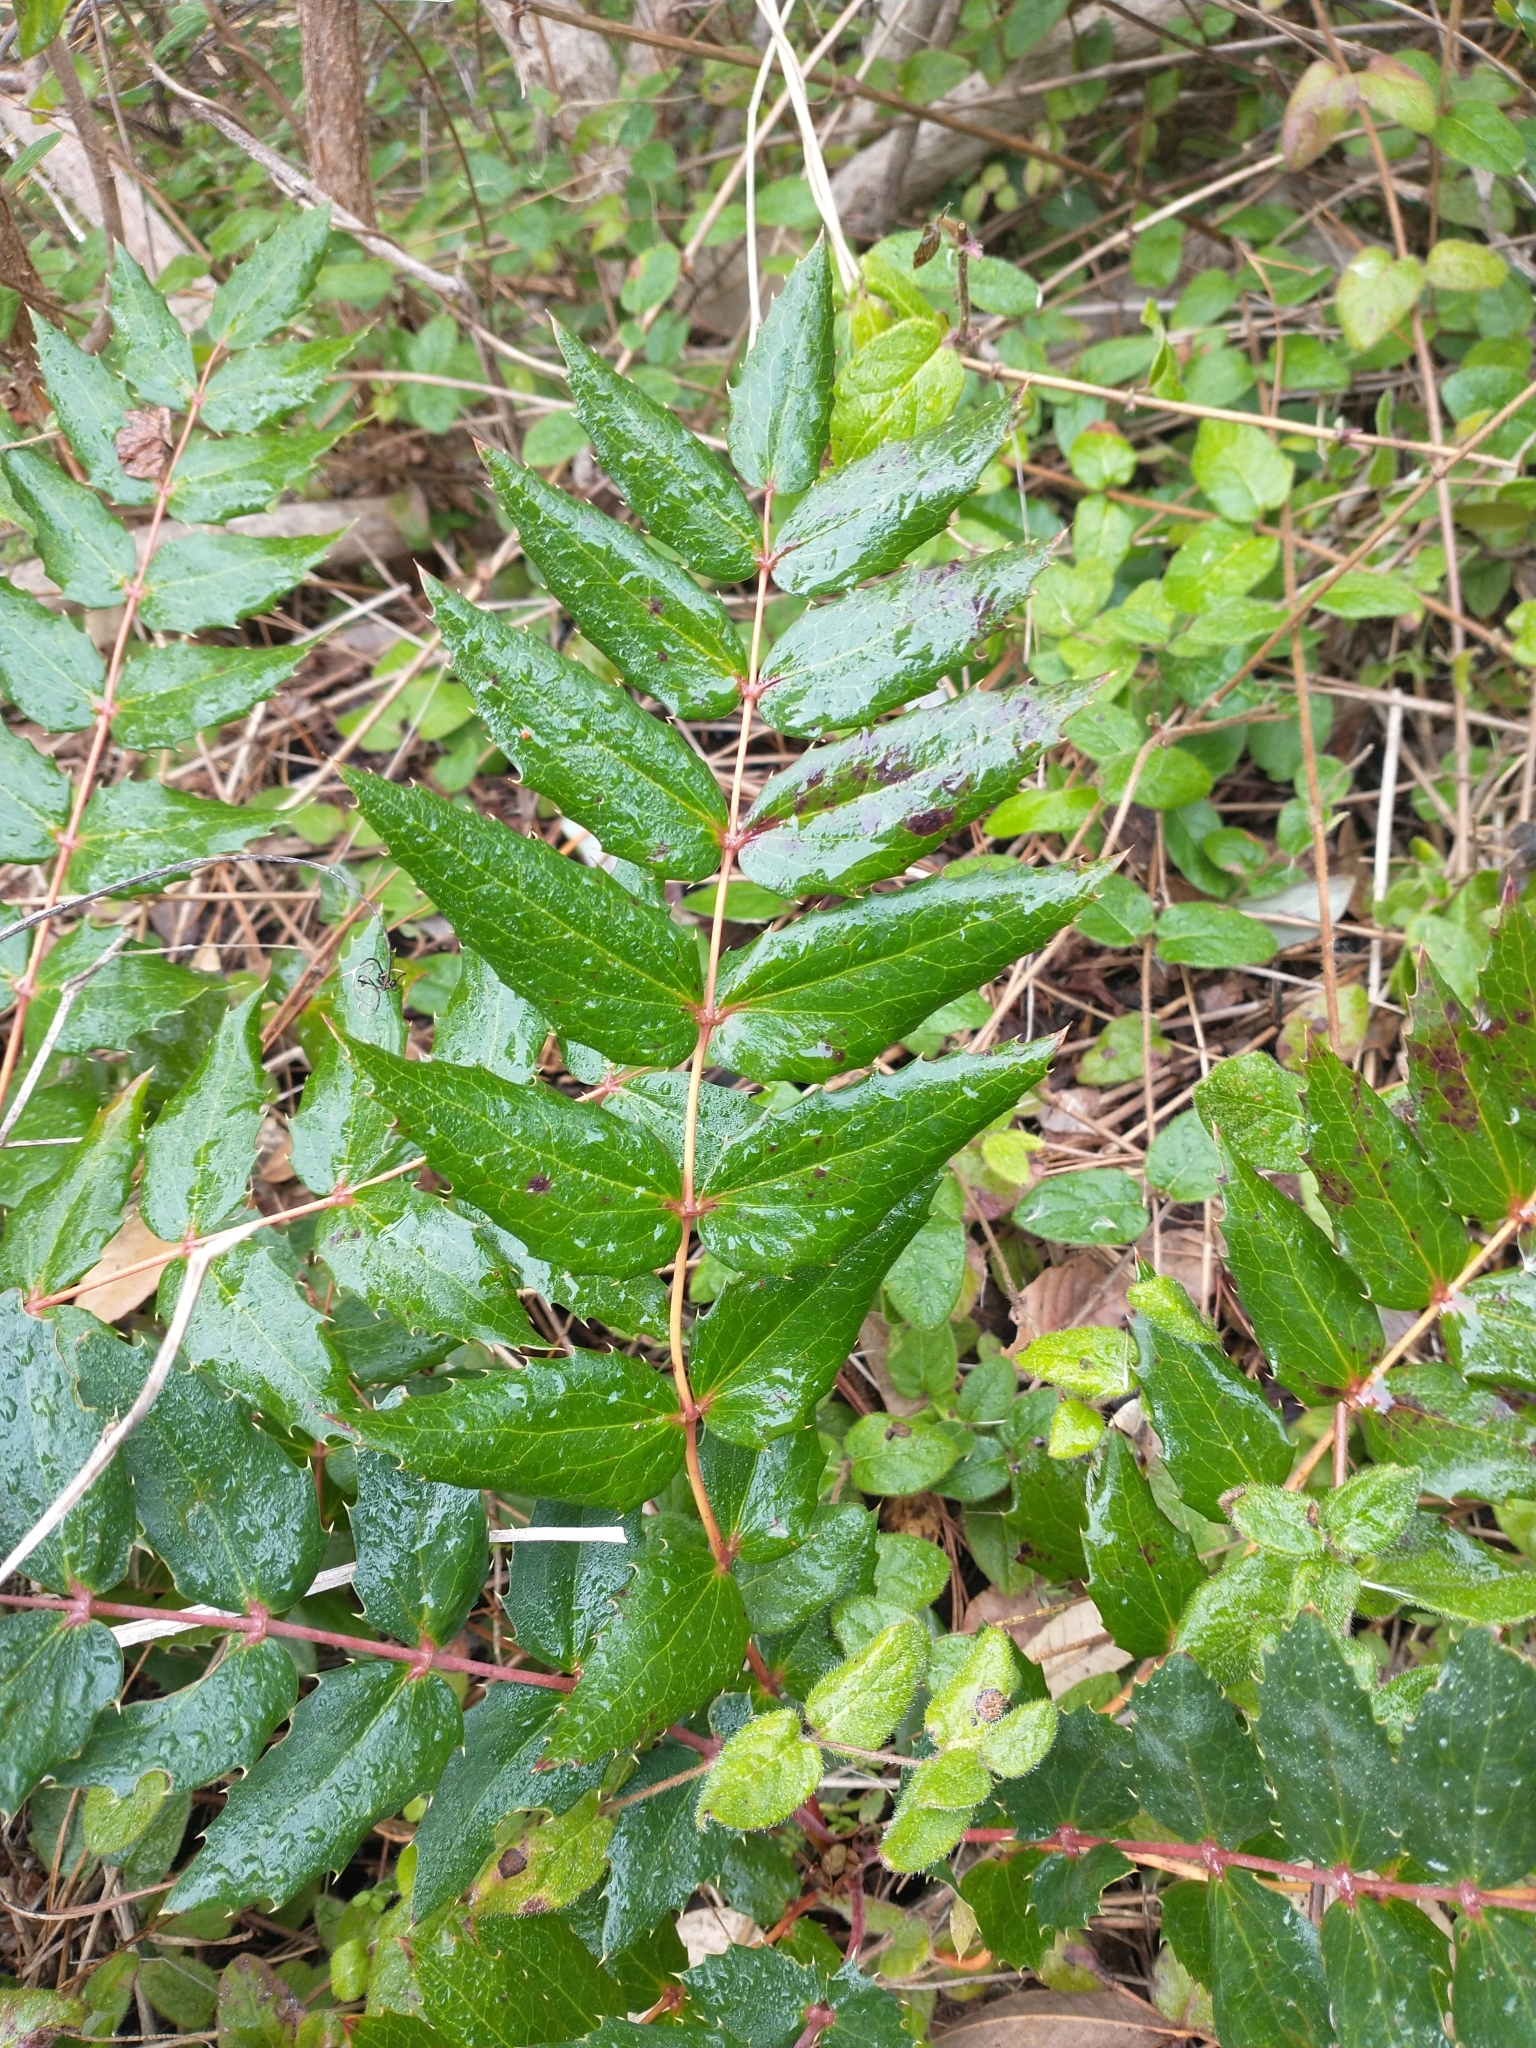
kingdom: Plantae
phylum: Tracheophyta
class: Magnoliopsida
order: Ranunculales
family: Berberidaceae
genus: Mahonia
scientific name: Mahonia nervosa
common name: Cascade oregon-grape
